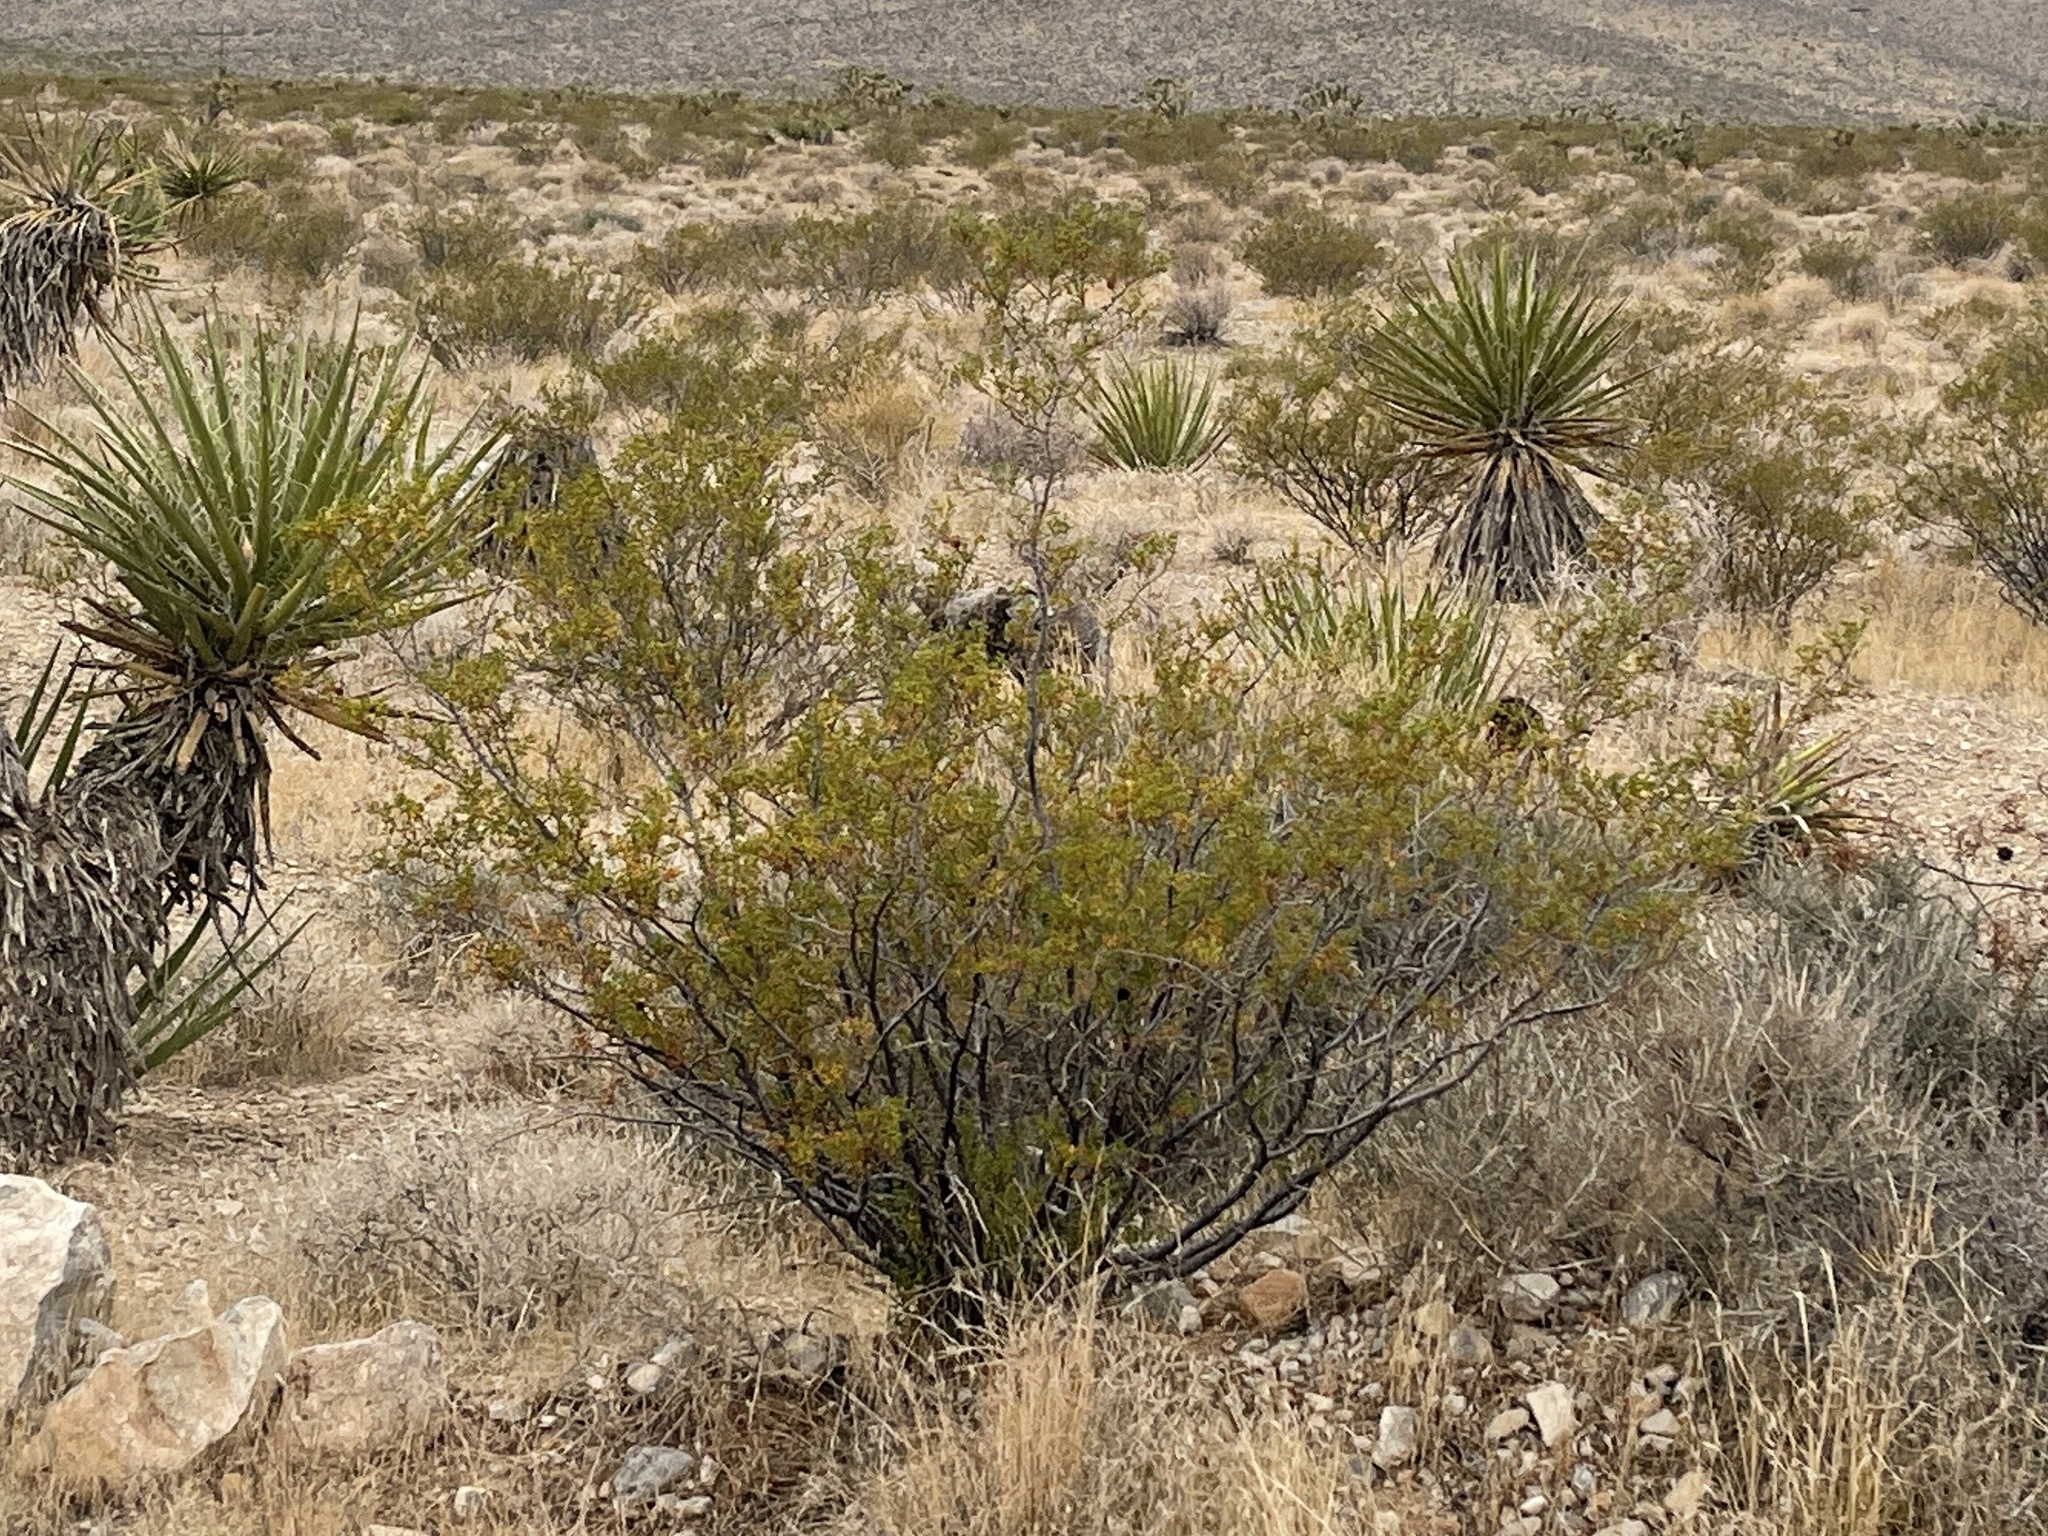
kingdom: Plantae
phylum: Tracheophyta
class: Magnoliopsida
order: Zygophyllales
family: Zygophyllaceae
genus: Larrea
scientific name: Larrea tridentata
